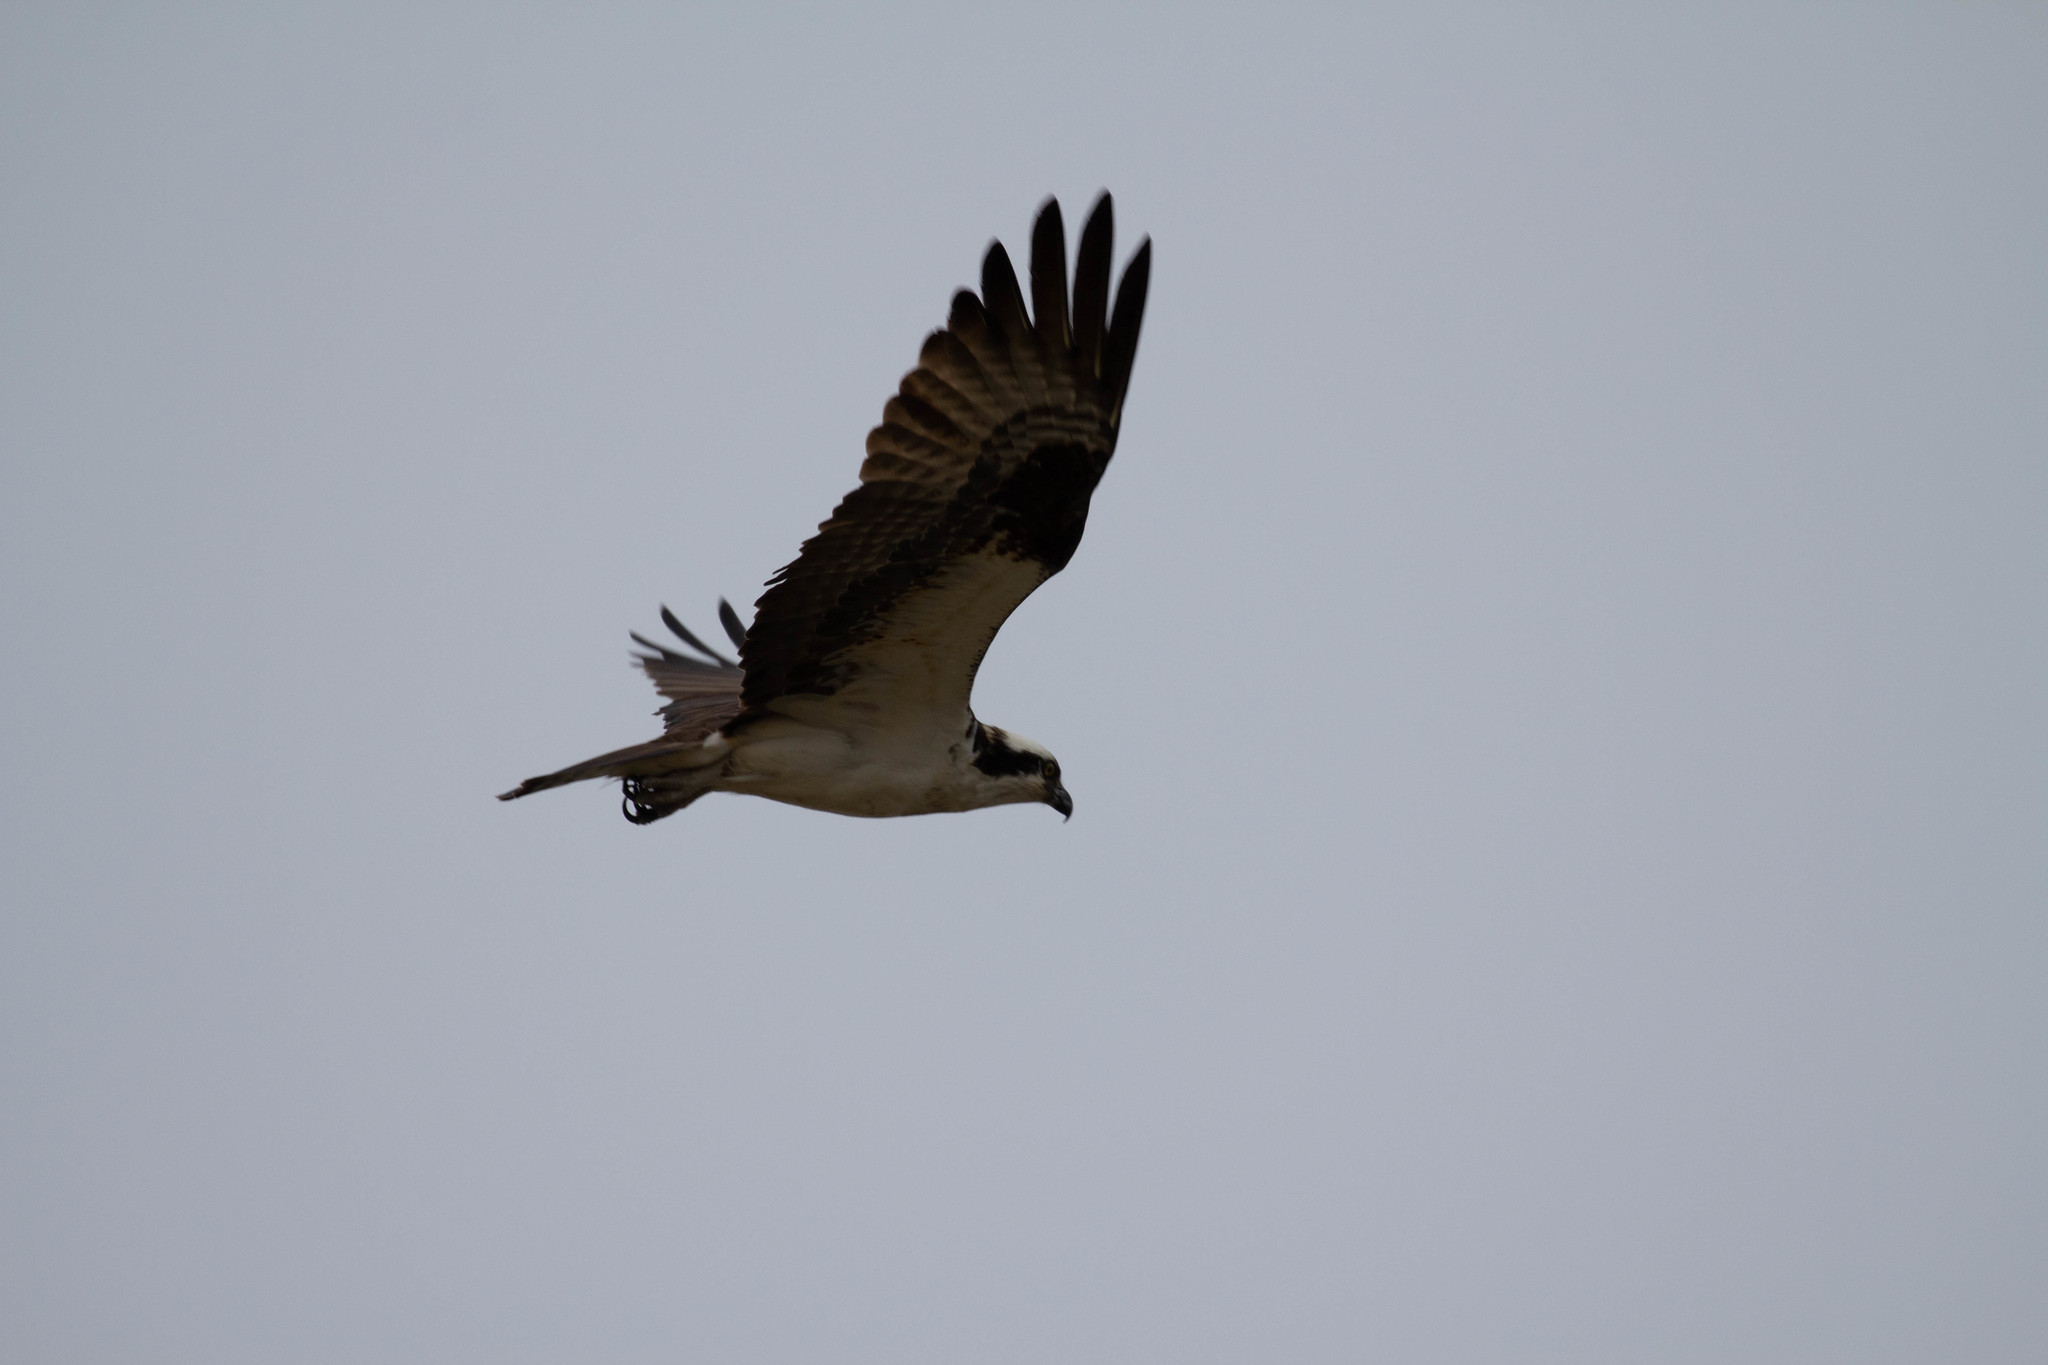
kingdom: Animalia
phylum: Chordata
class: Aves
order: Accipitriformes
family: Pandionidae
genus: Pandion
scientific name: Pandion haliaetus
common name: Osprey
